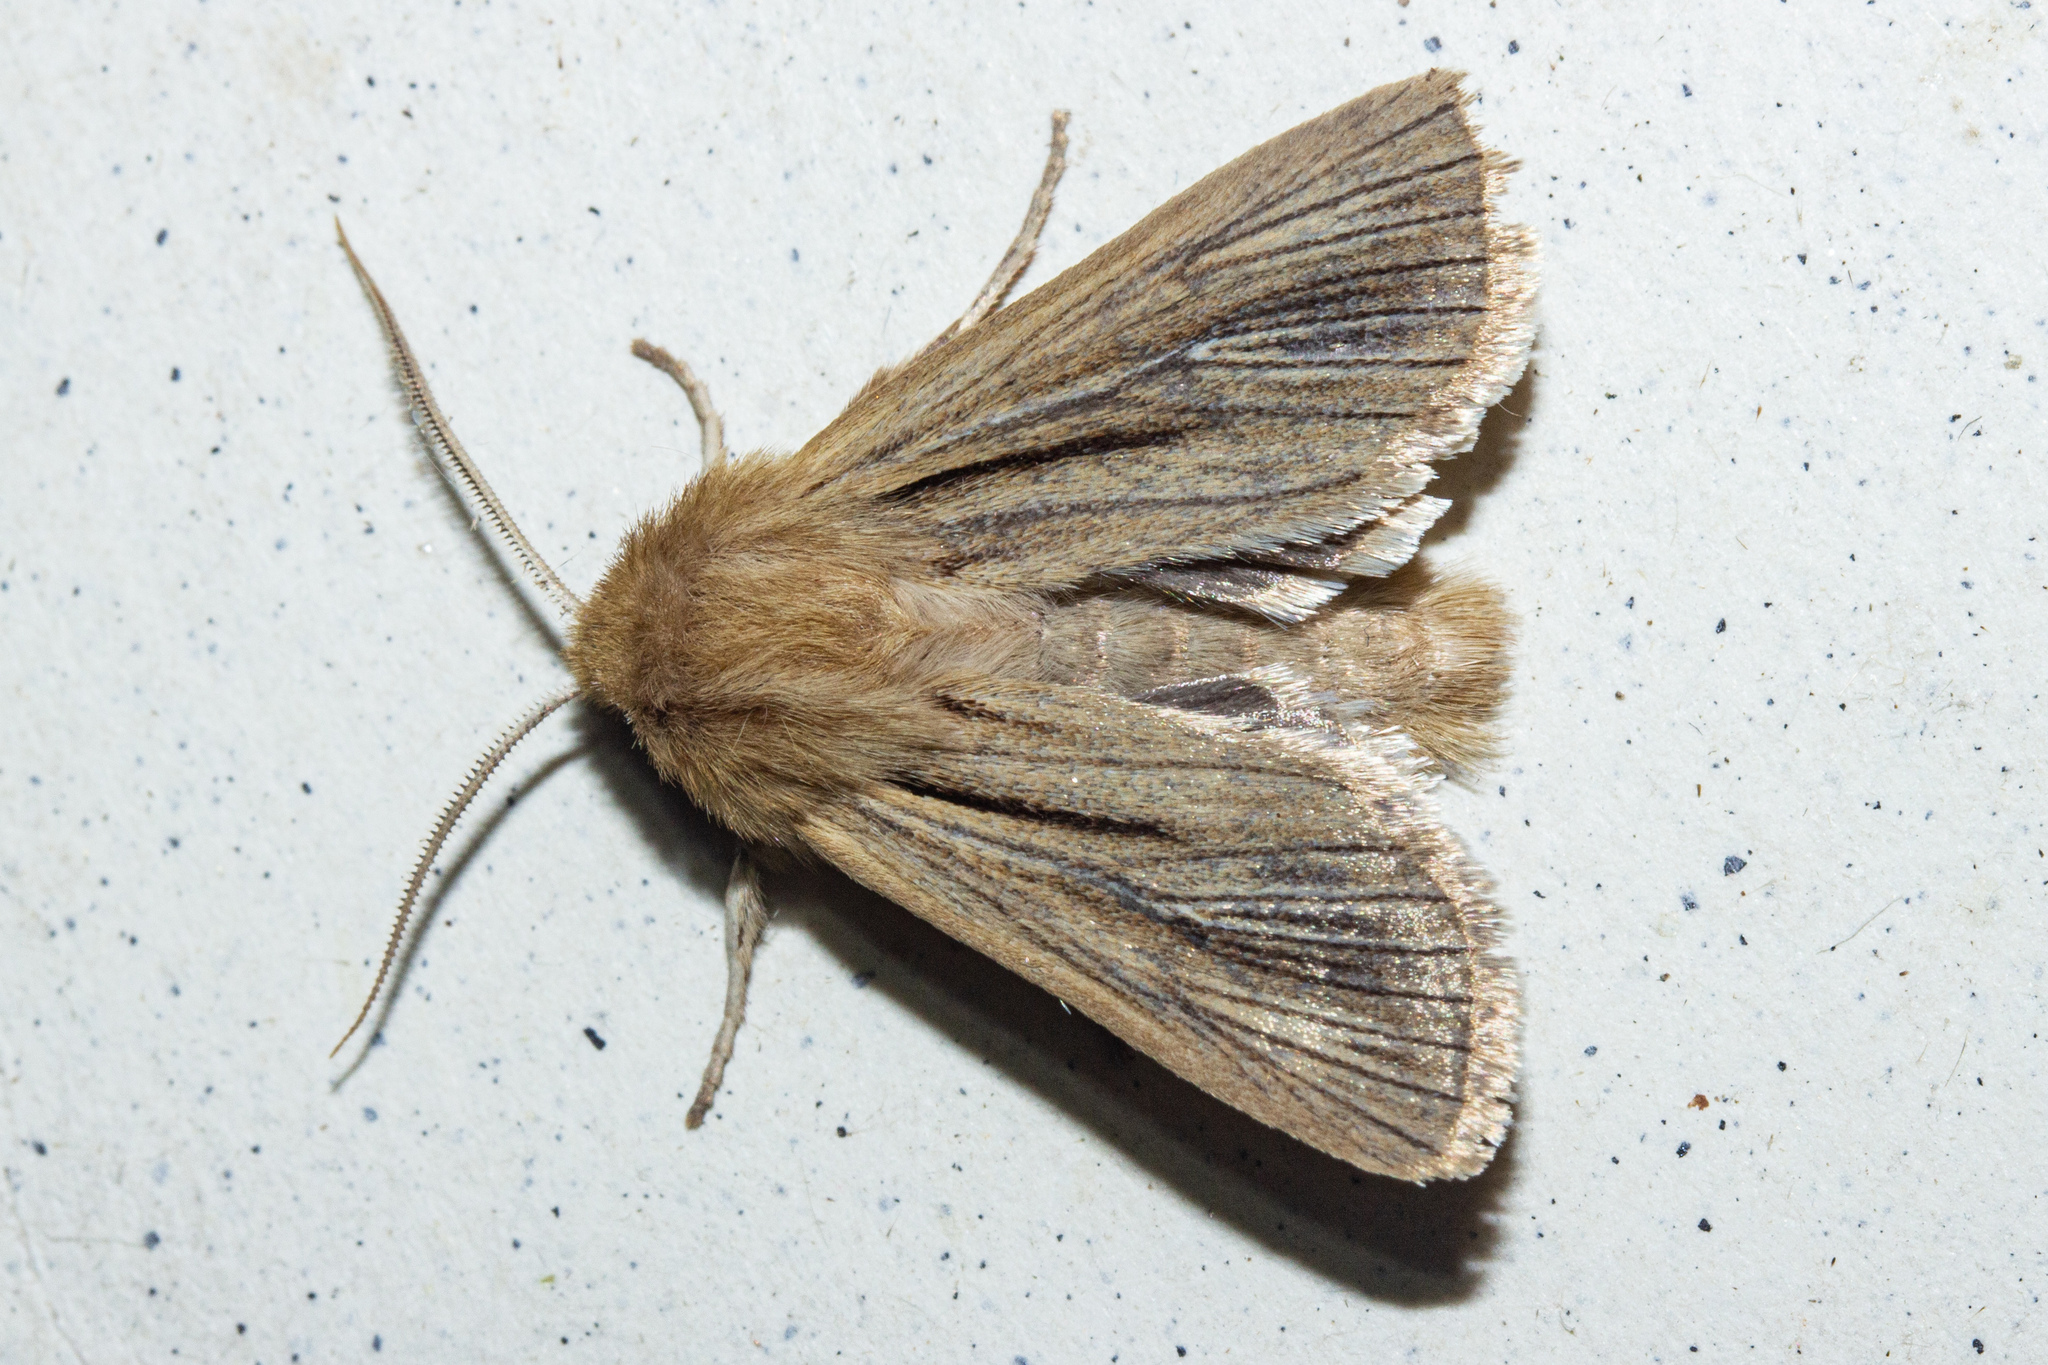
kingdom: Animalia
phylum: Arthropoda
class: Insecta
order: Lepidoptera
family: Noctuidae
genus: Ichneutica
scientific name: Ichneutica
